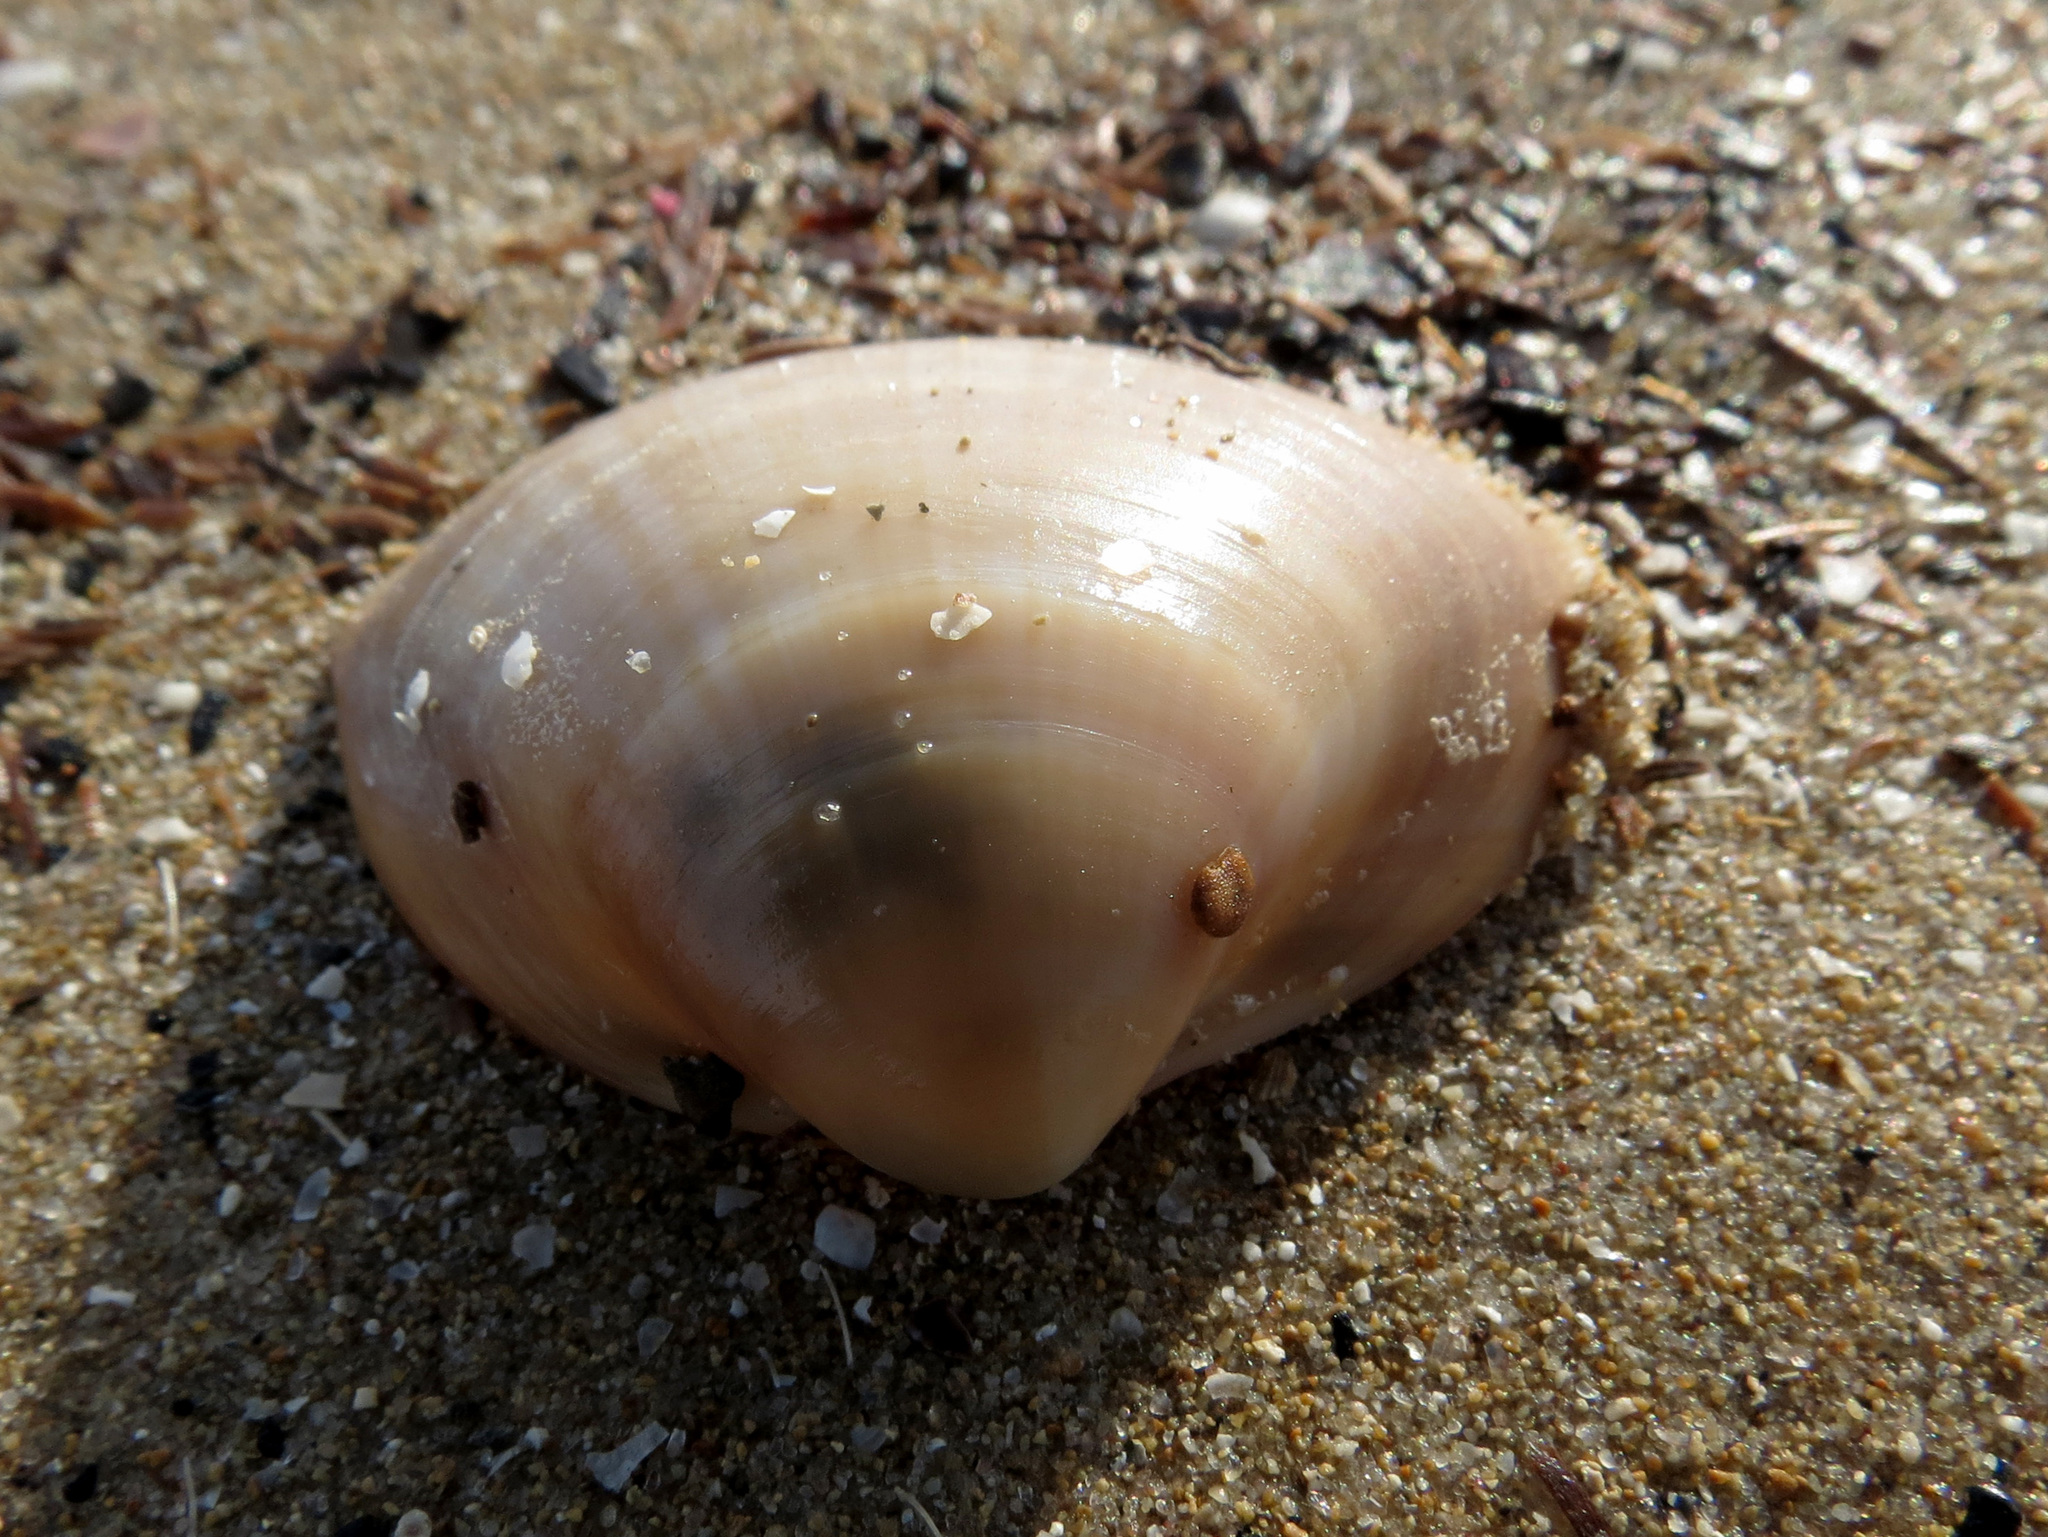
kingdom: Animalia
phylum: Mollusca
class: Bivalvia
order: Venerida
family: Mactridae
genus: Mactra
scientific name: Mactra stultorum
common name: Rayed trough shell
